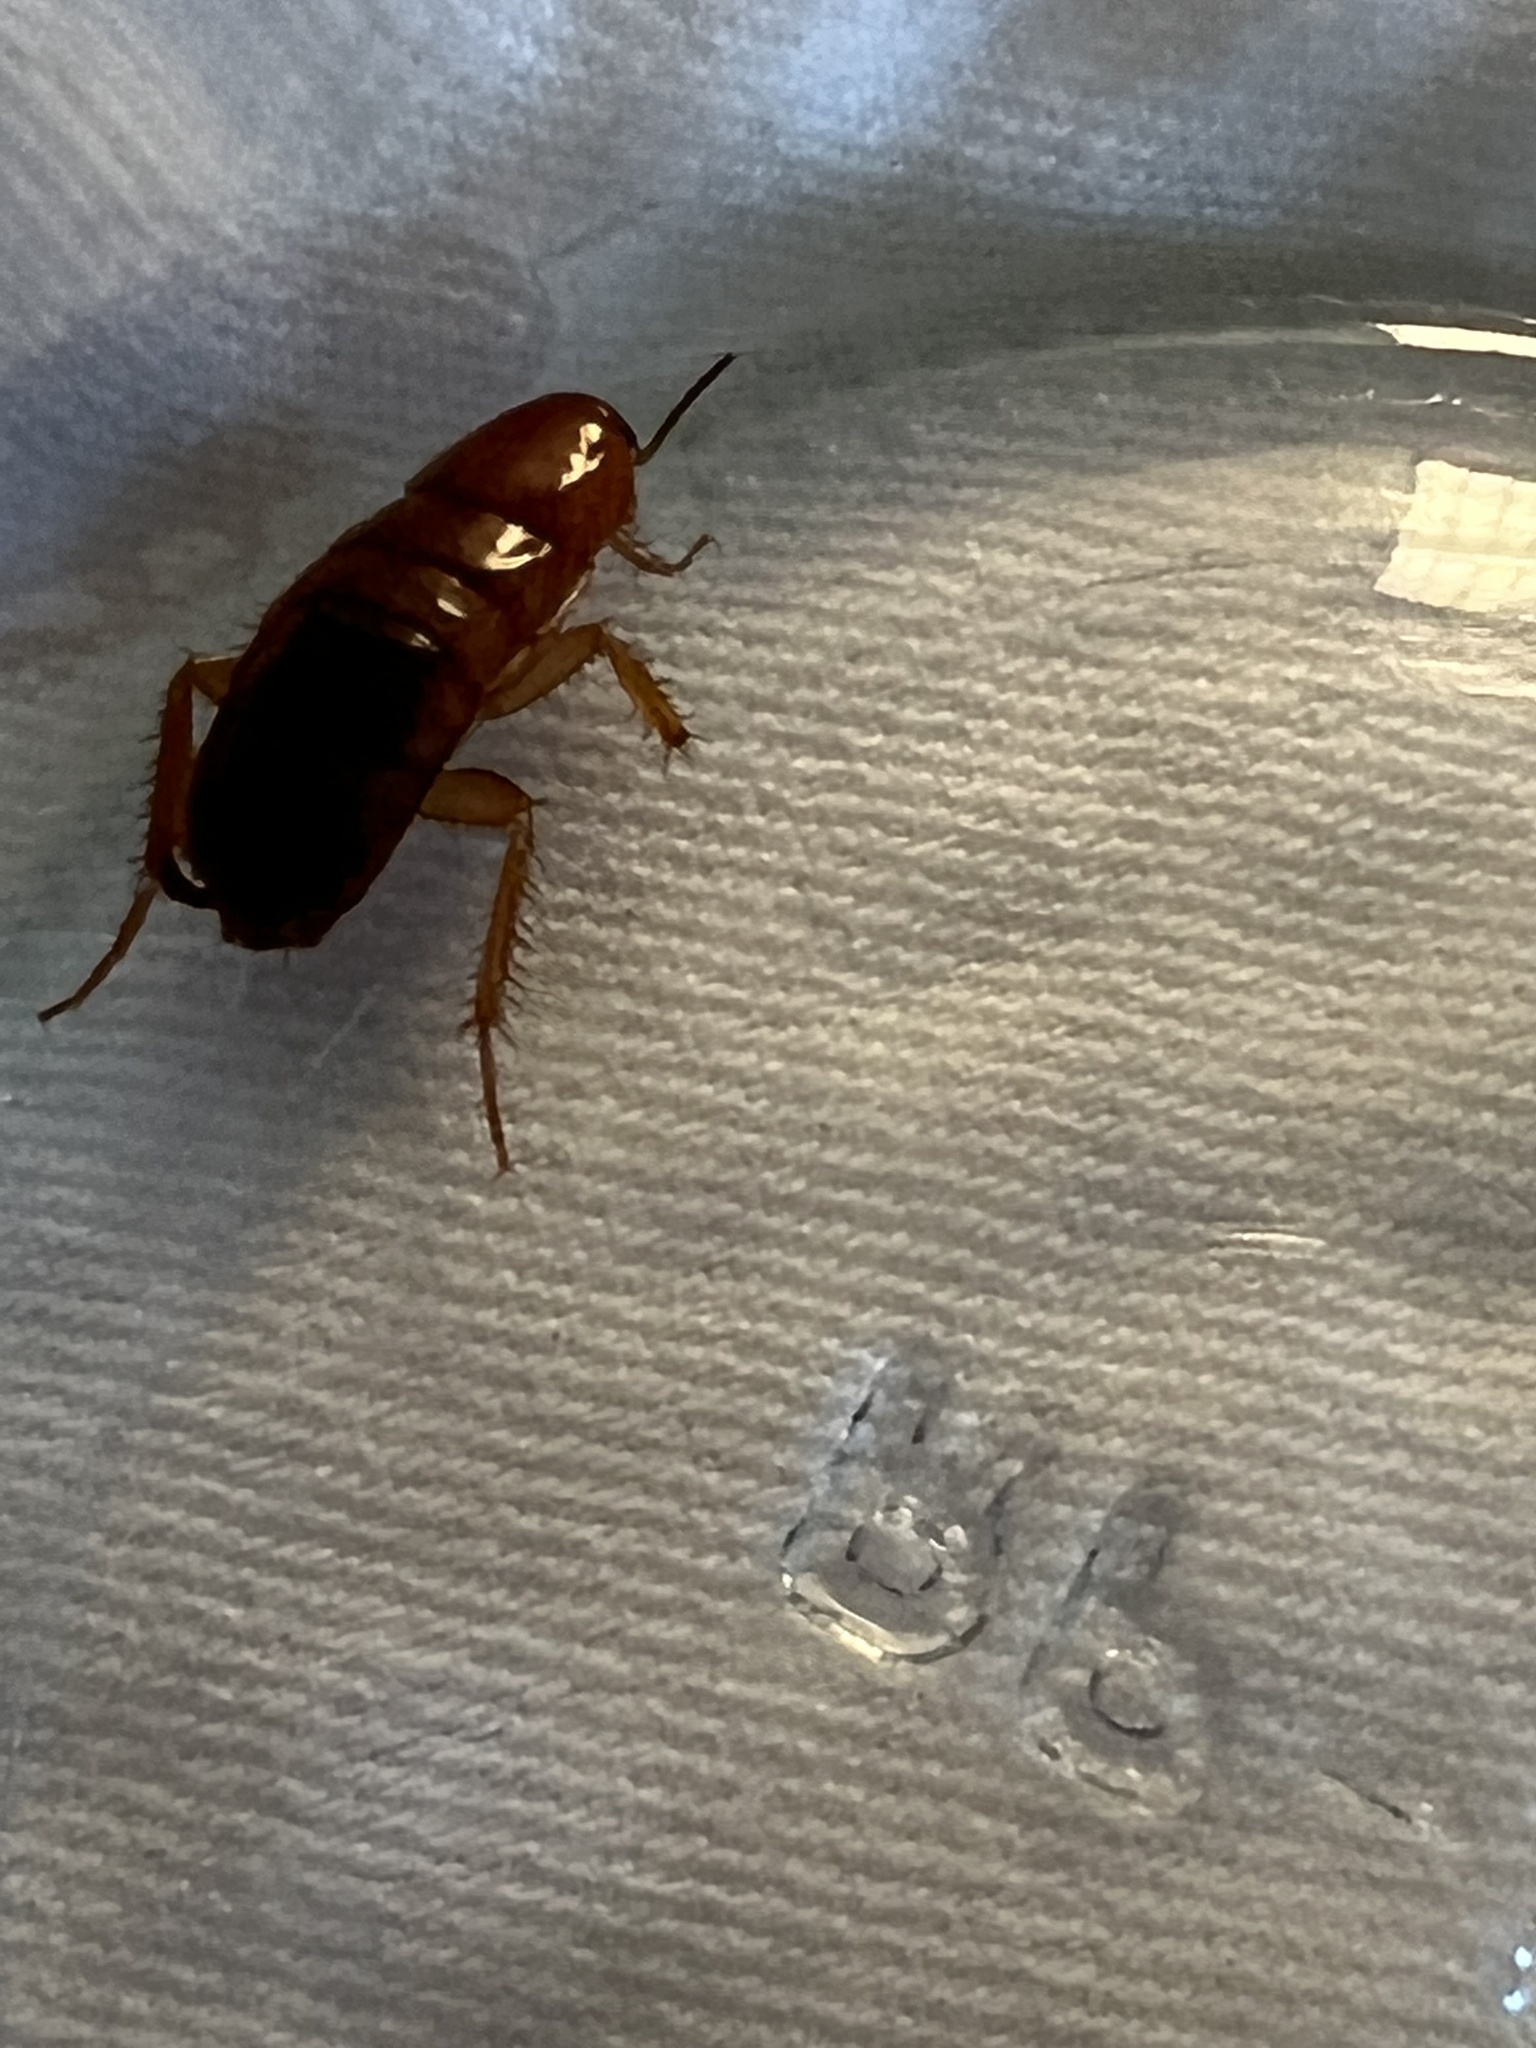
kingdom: Animalia
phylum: Arthropoda
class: Insecta
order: Blattodea
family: Blattidae
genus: Periplaneta
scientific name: Periplaneta lateralis
